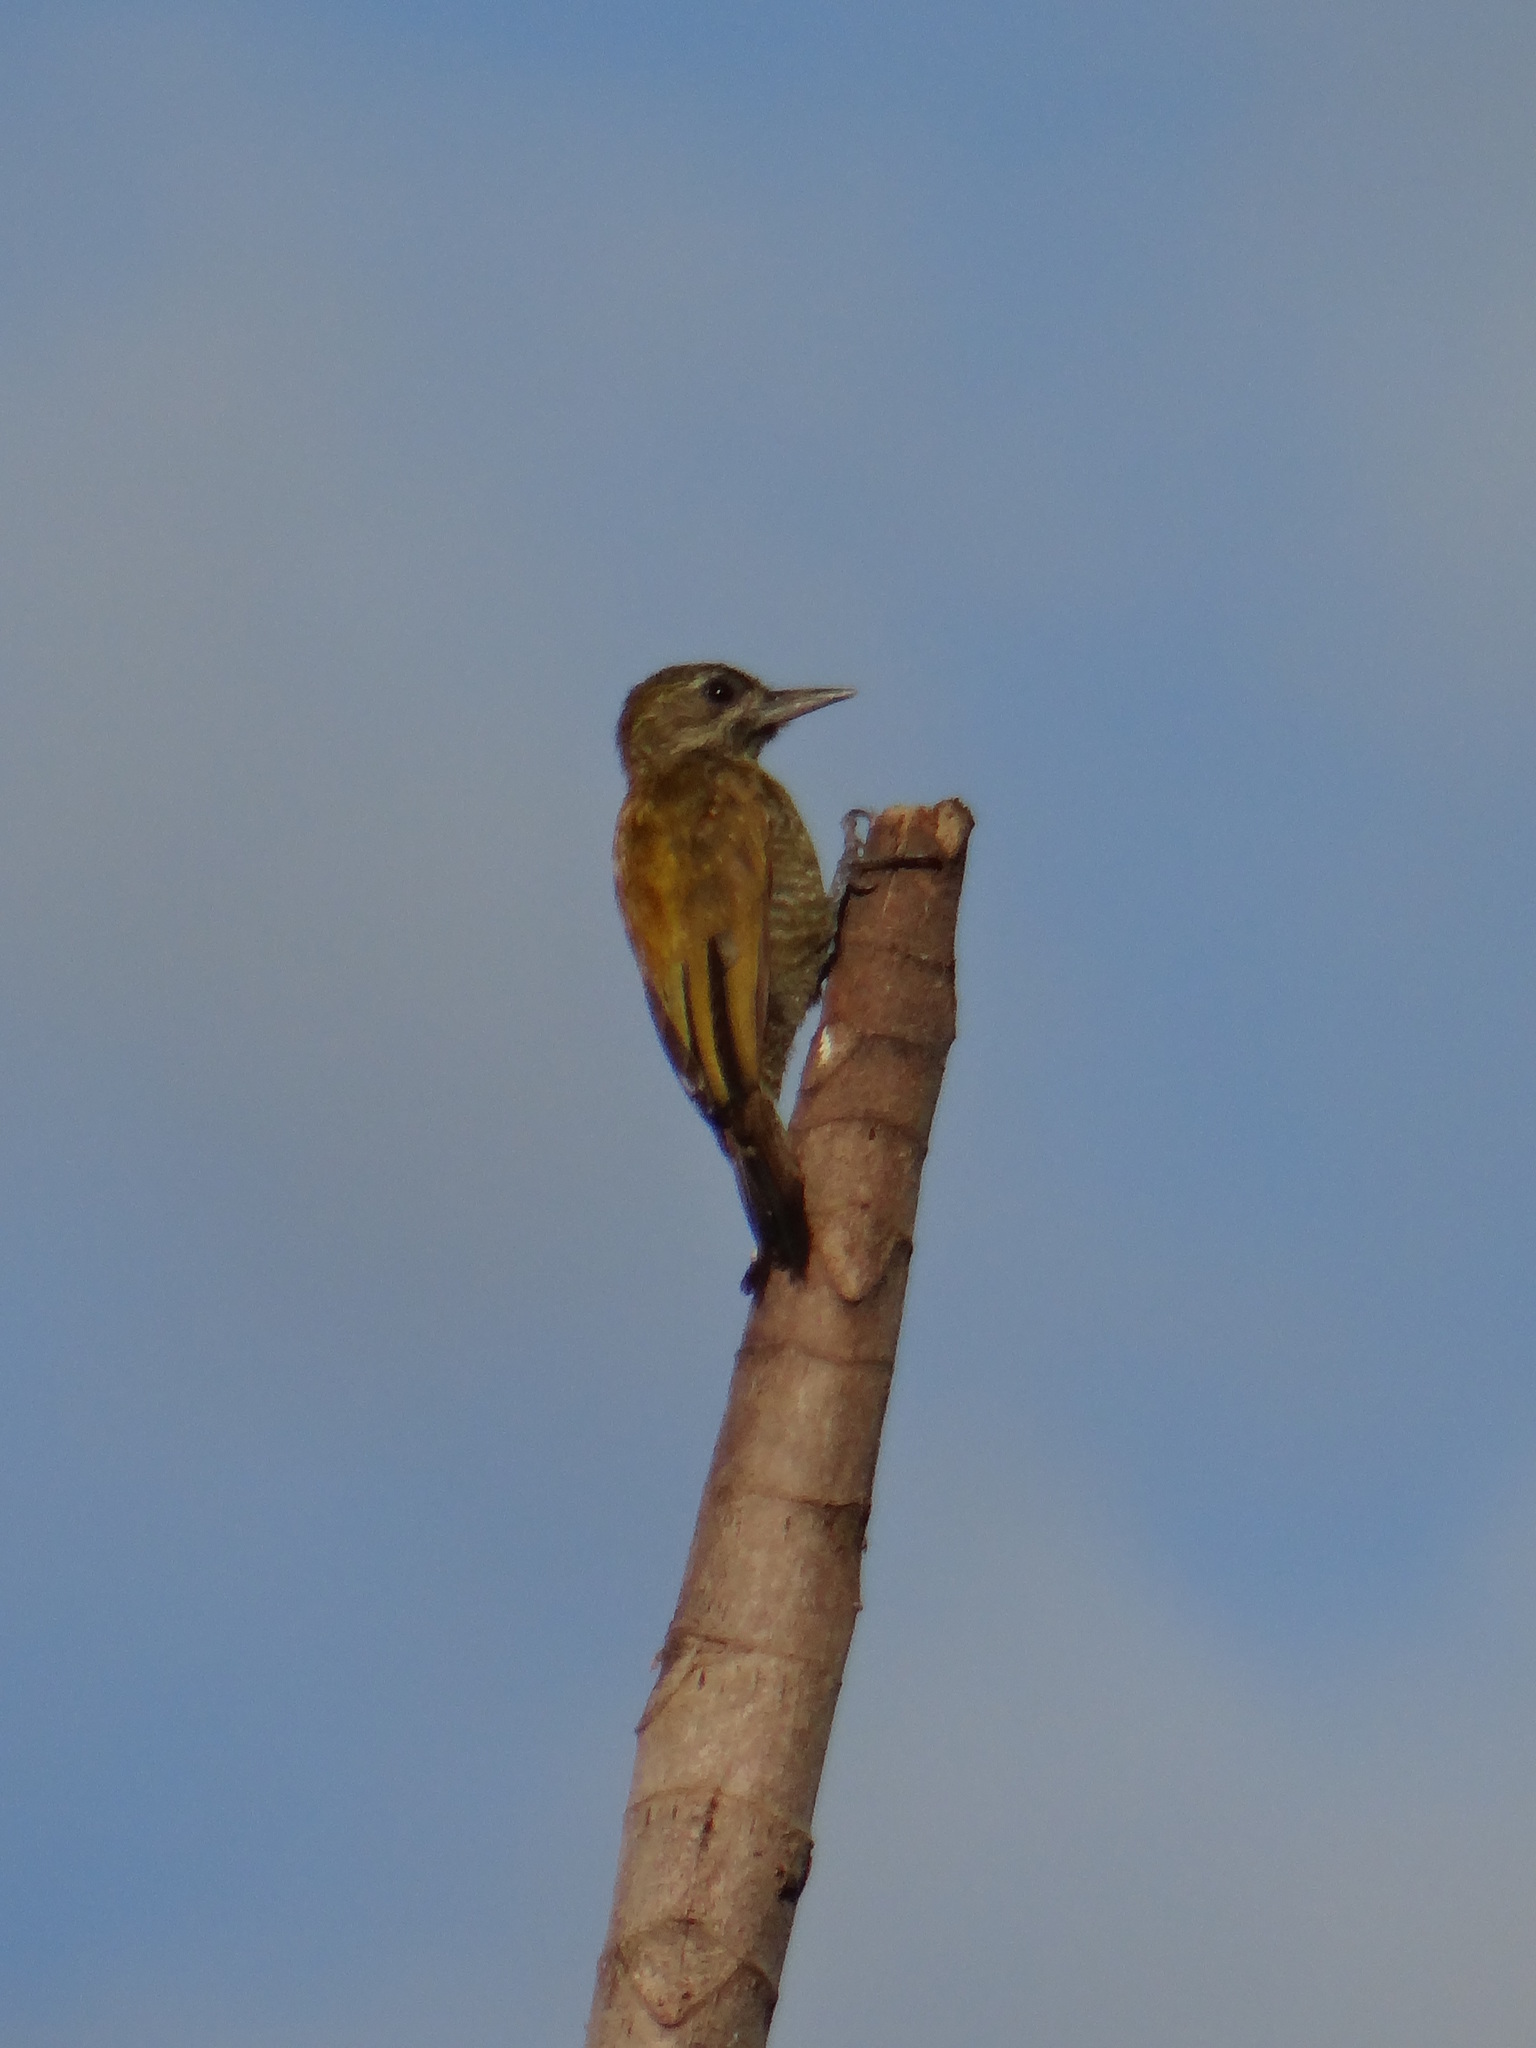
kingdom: Animalia
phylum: Chordata
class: Aves
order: Piciformes
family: Picidae
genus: Veniliornis
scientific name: Veniliornis passerinus
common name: Little woodpecker
